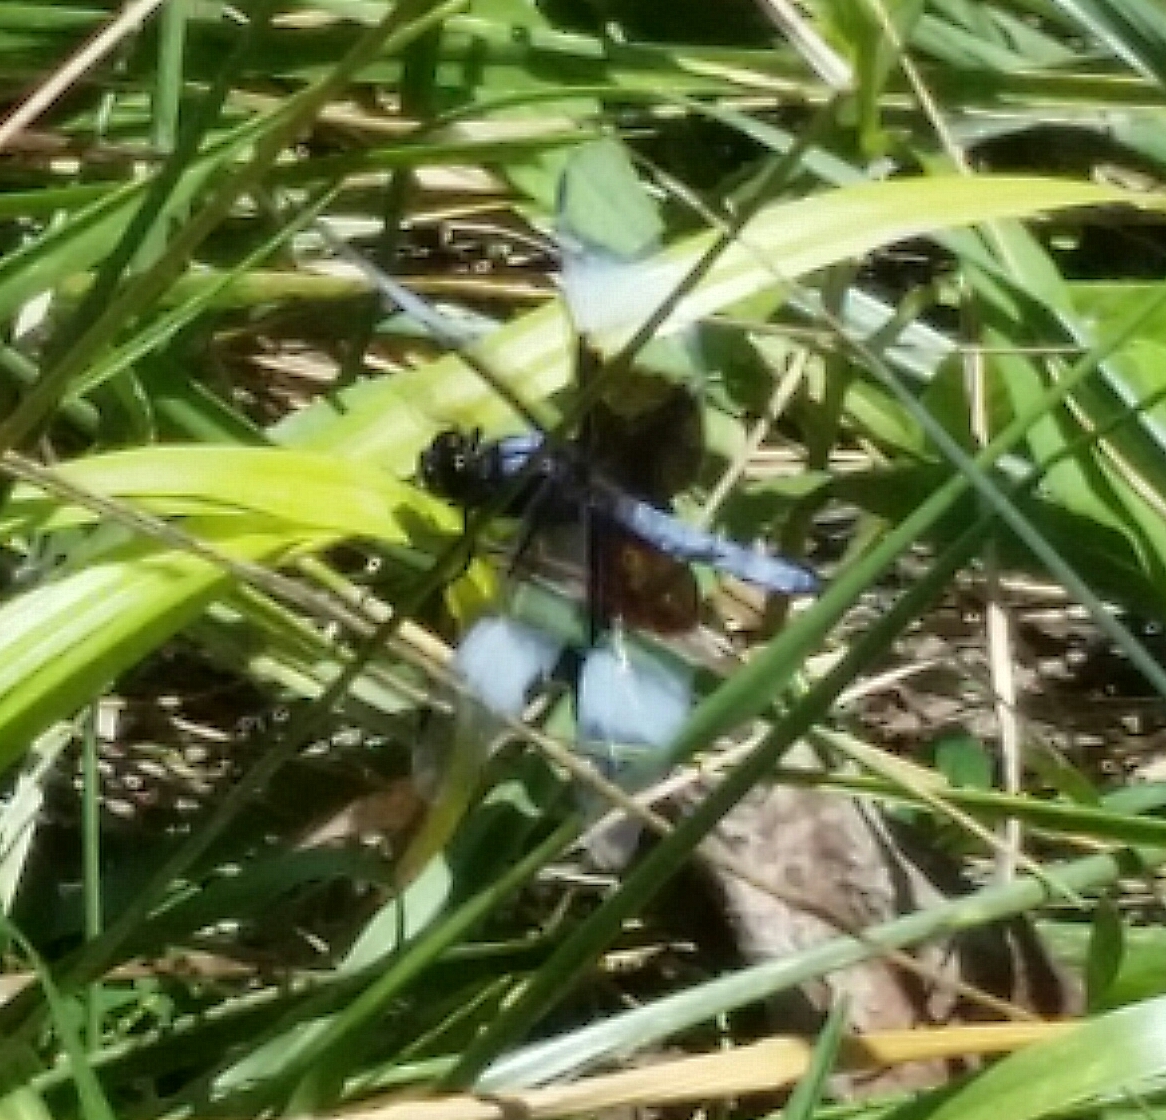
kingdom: Animalia
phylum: Arthropoda
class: Insecta
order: Odonata
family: Libellulidae
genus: Libellula
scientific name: Libellula luctuosa
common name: Widow skimmer
